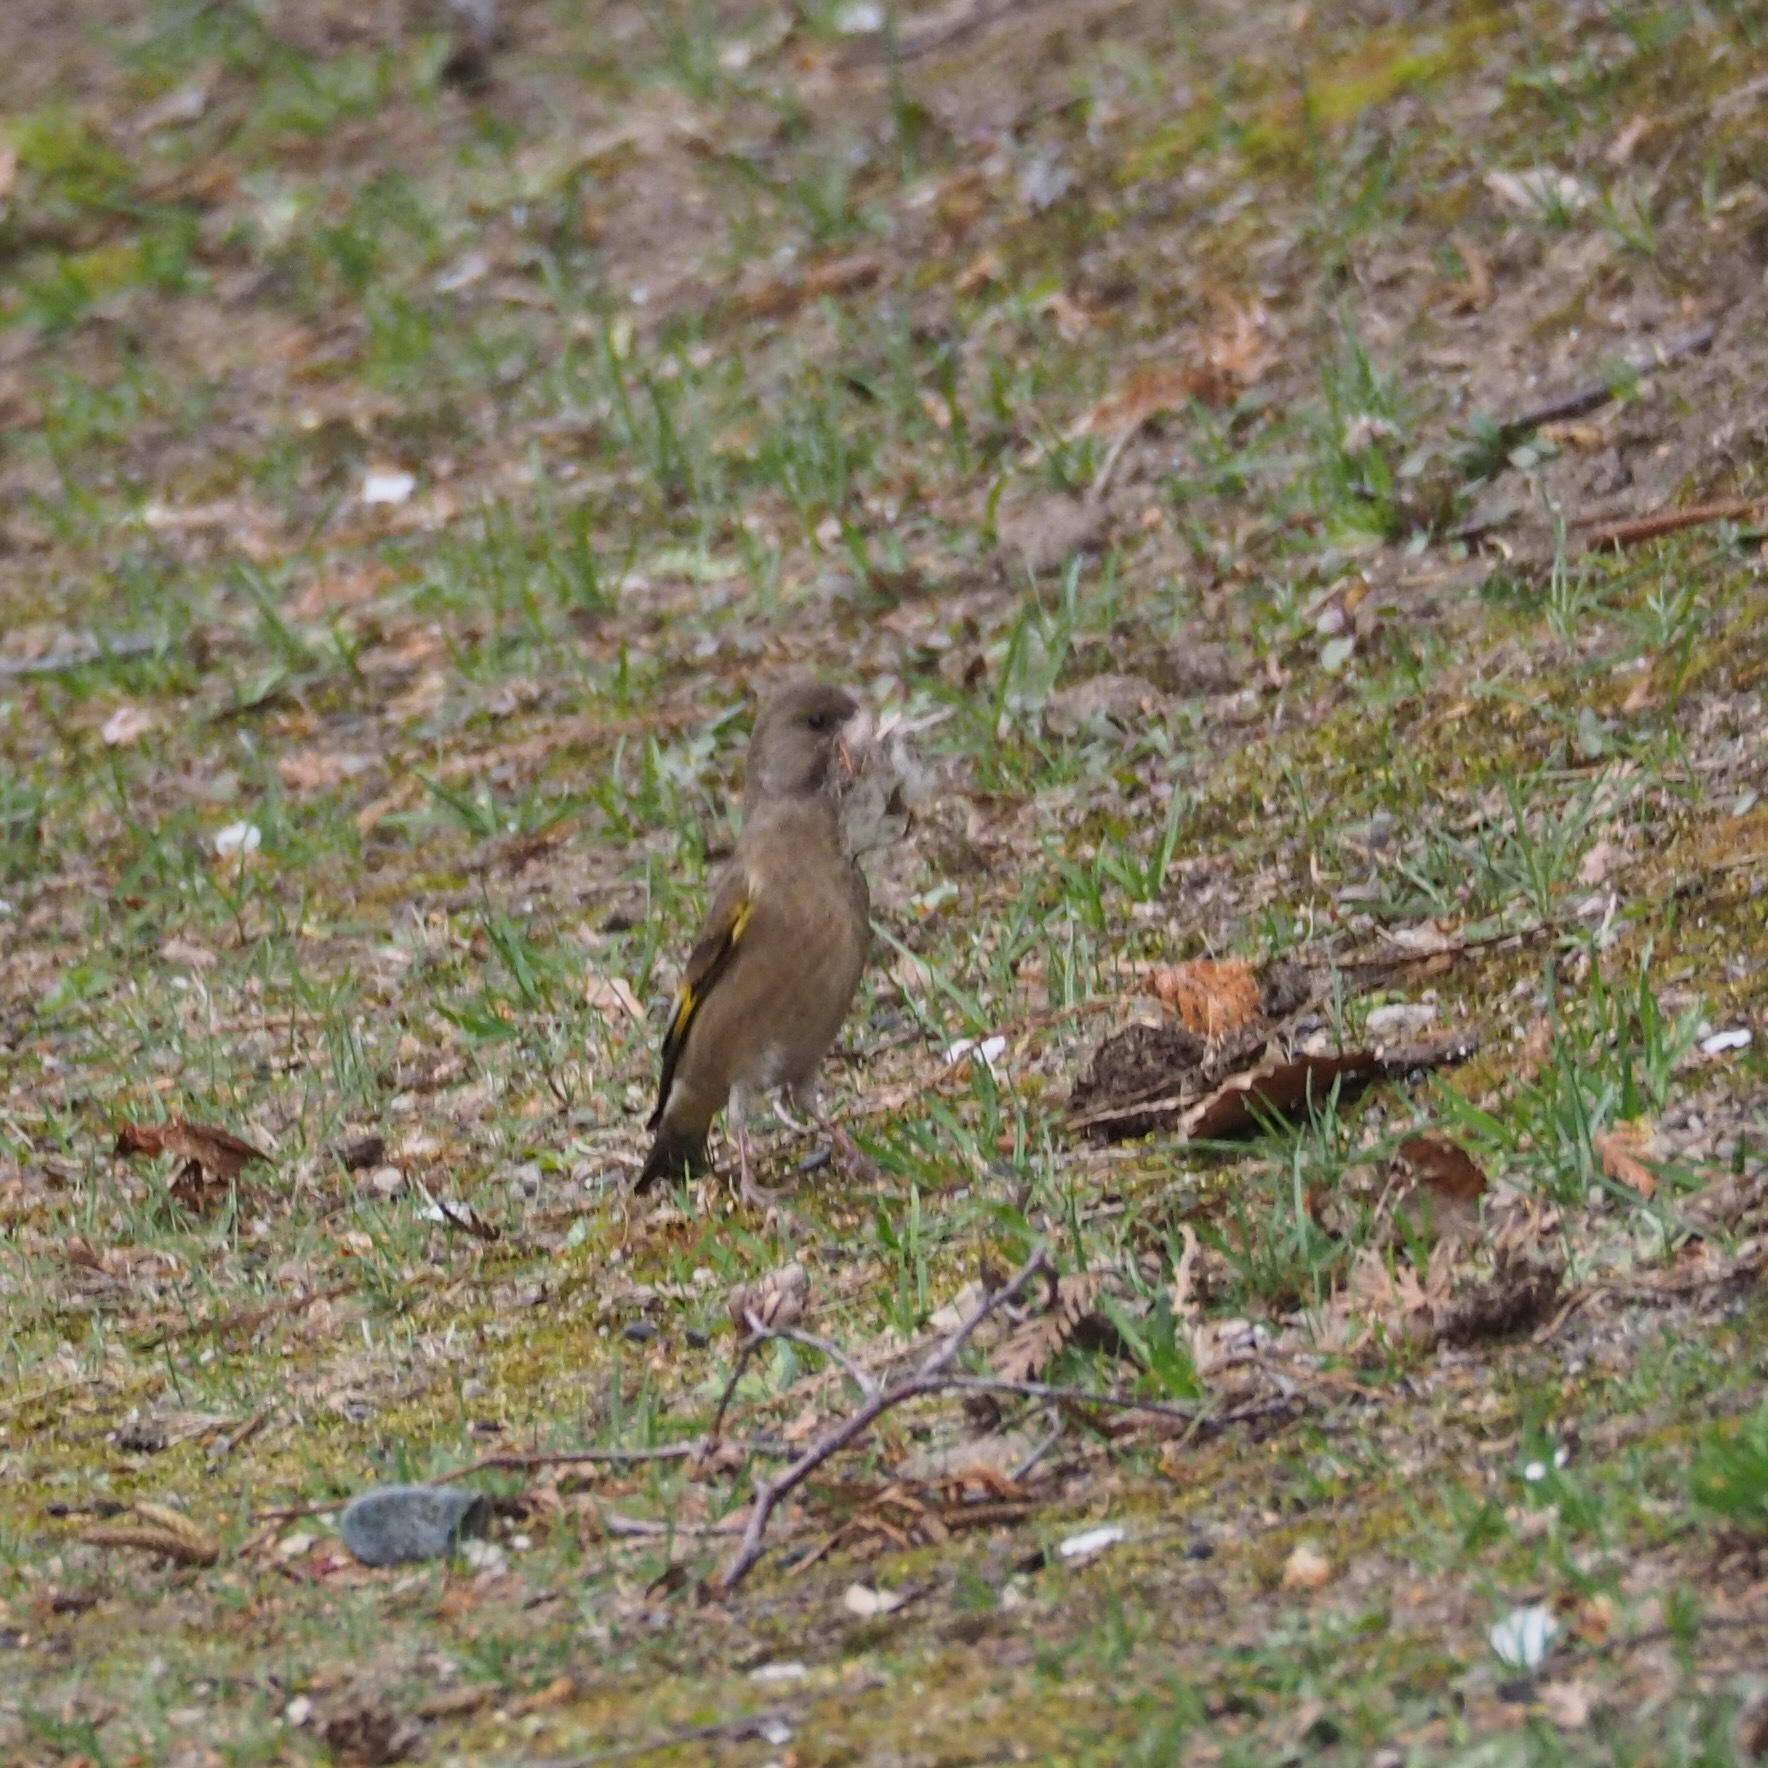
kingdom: Plantae
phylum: Tracheophyta
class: Liliopsida
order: Poales
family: Poaceae
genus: Chloris
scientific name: Chloris sinica
